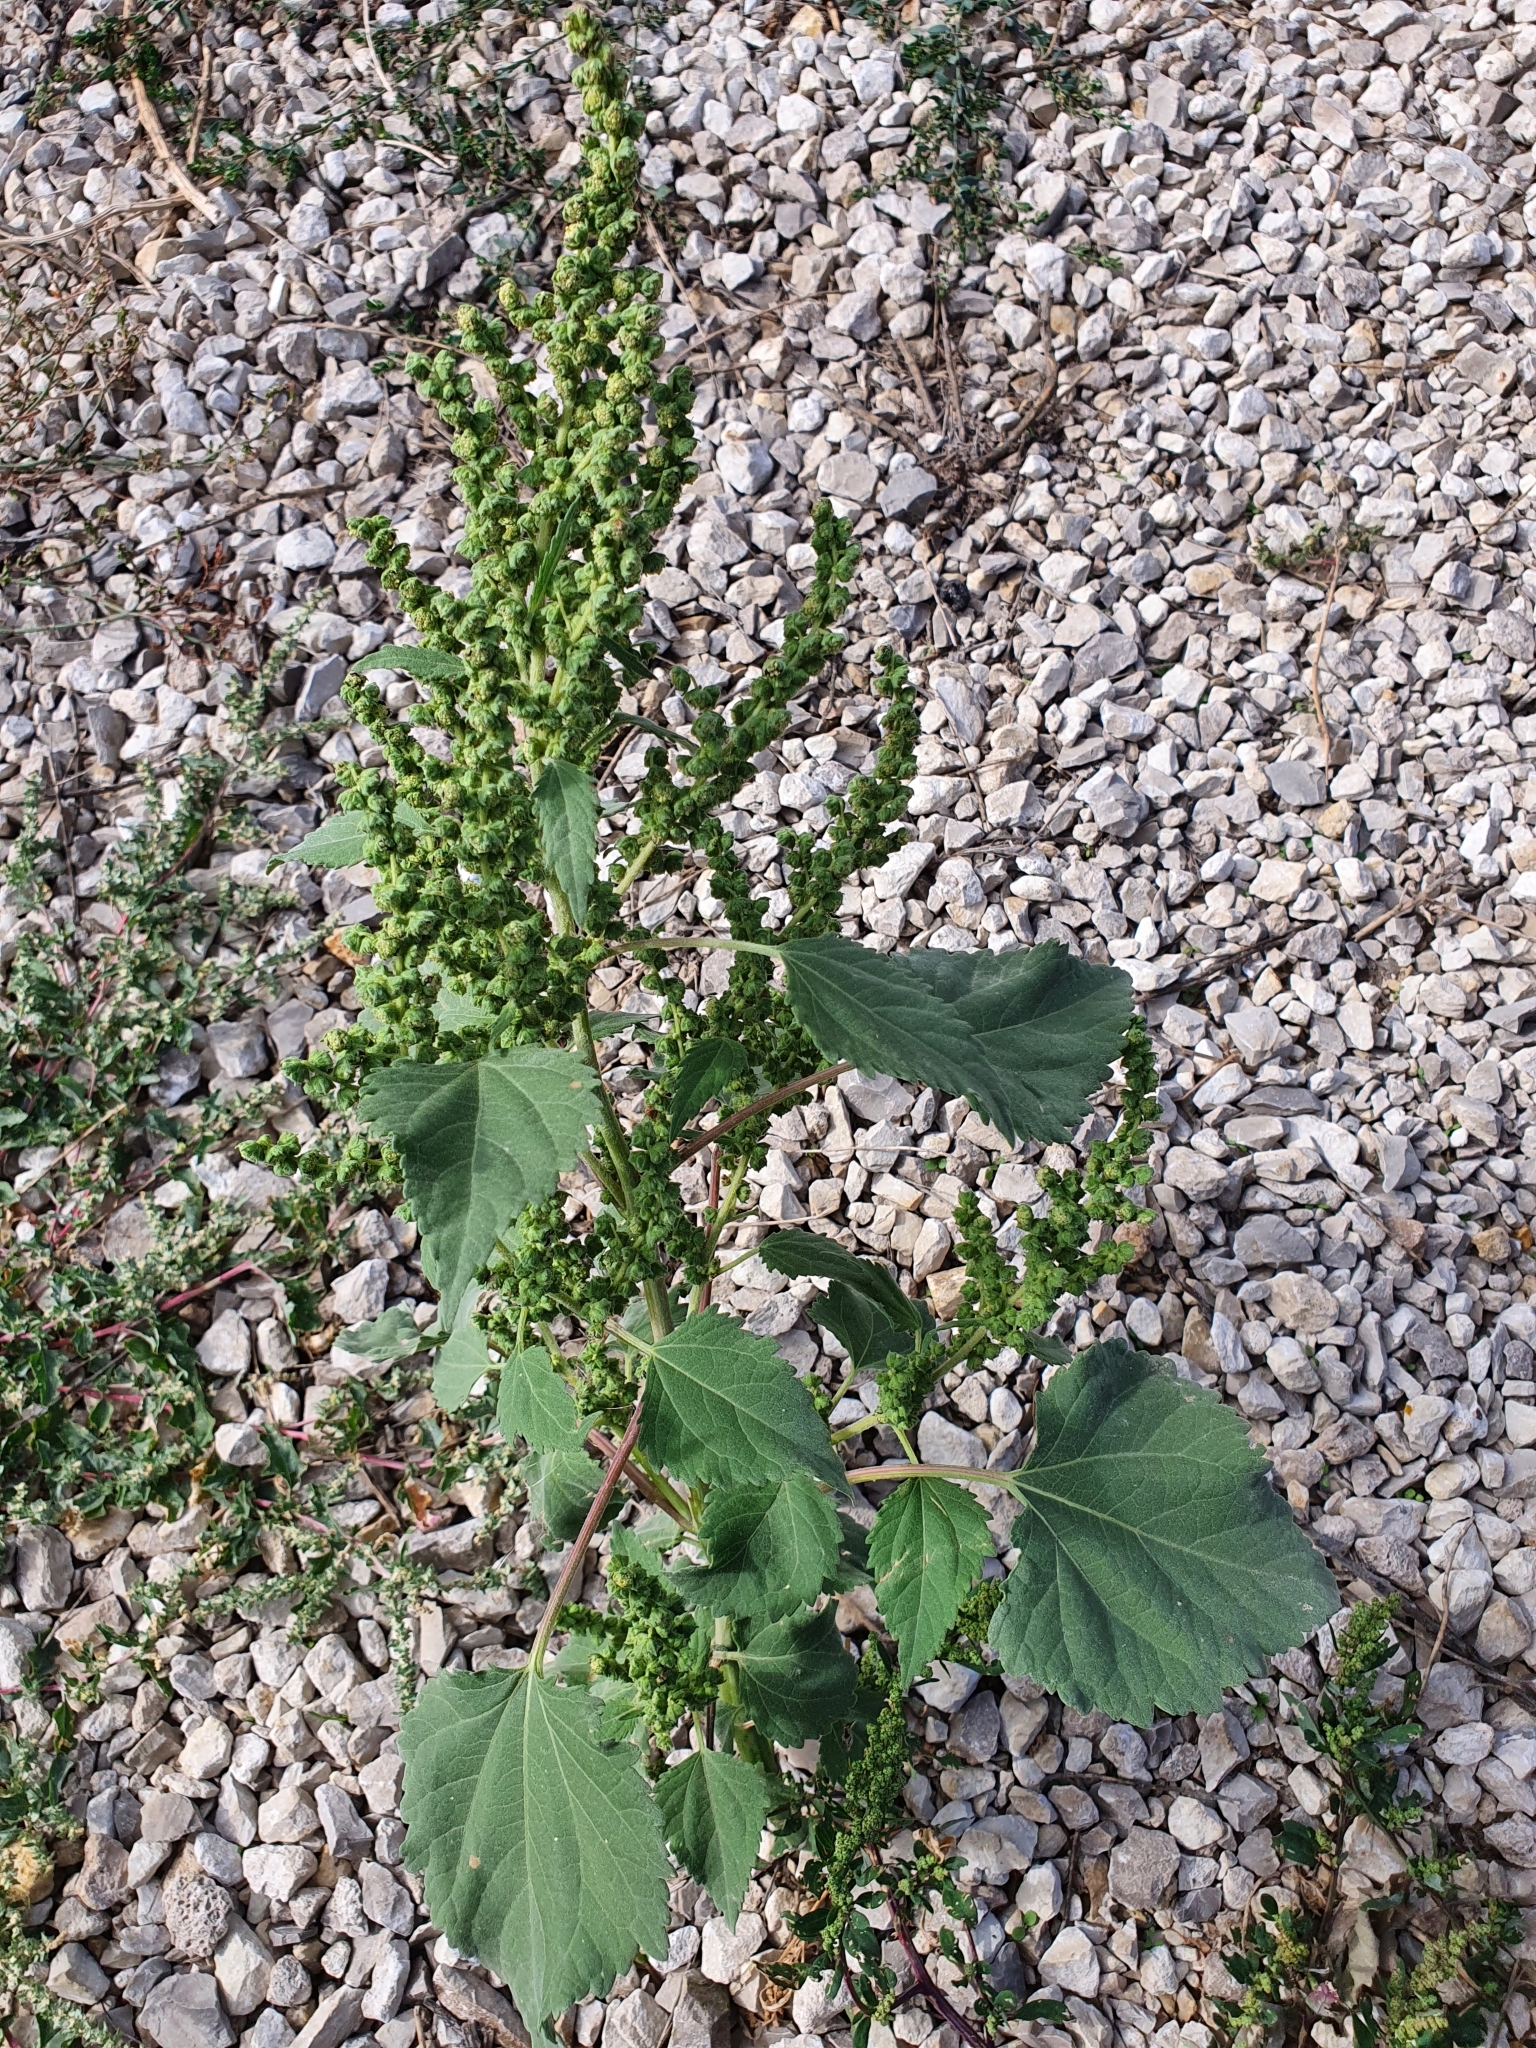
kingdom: Plantae
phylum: Tracheophyta
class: Magnoliopsida
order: Asterales
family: Asteraceae
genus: Cyclachaena
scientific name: Cyclachaena xanthiifolia
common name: Giant sumpweed
